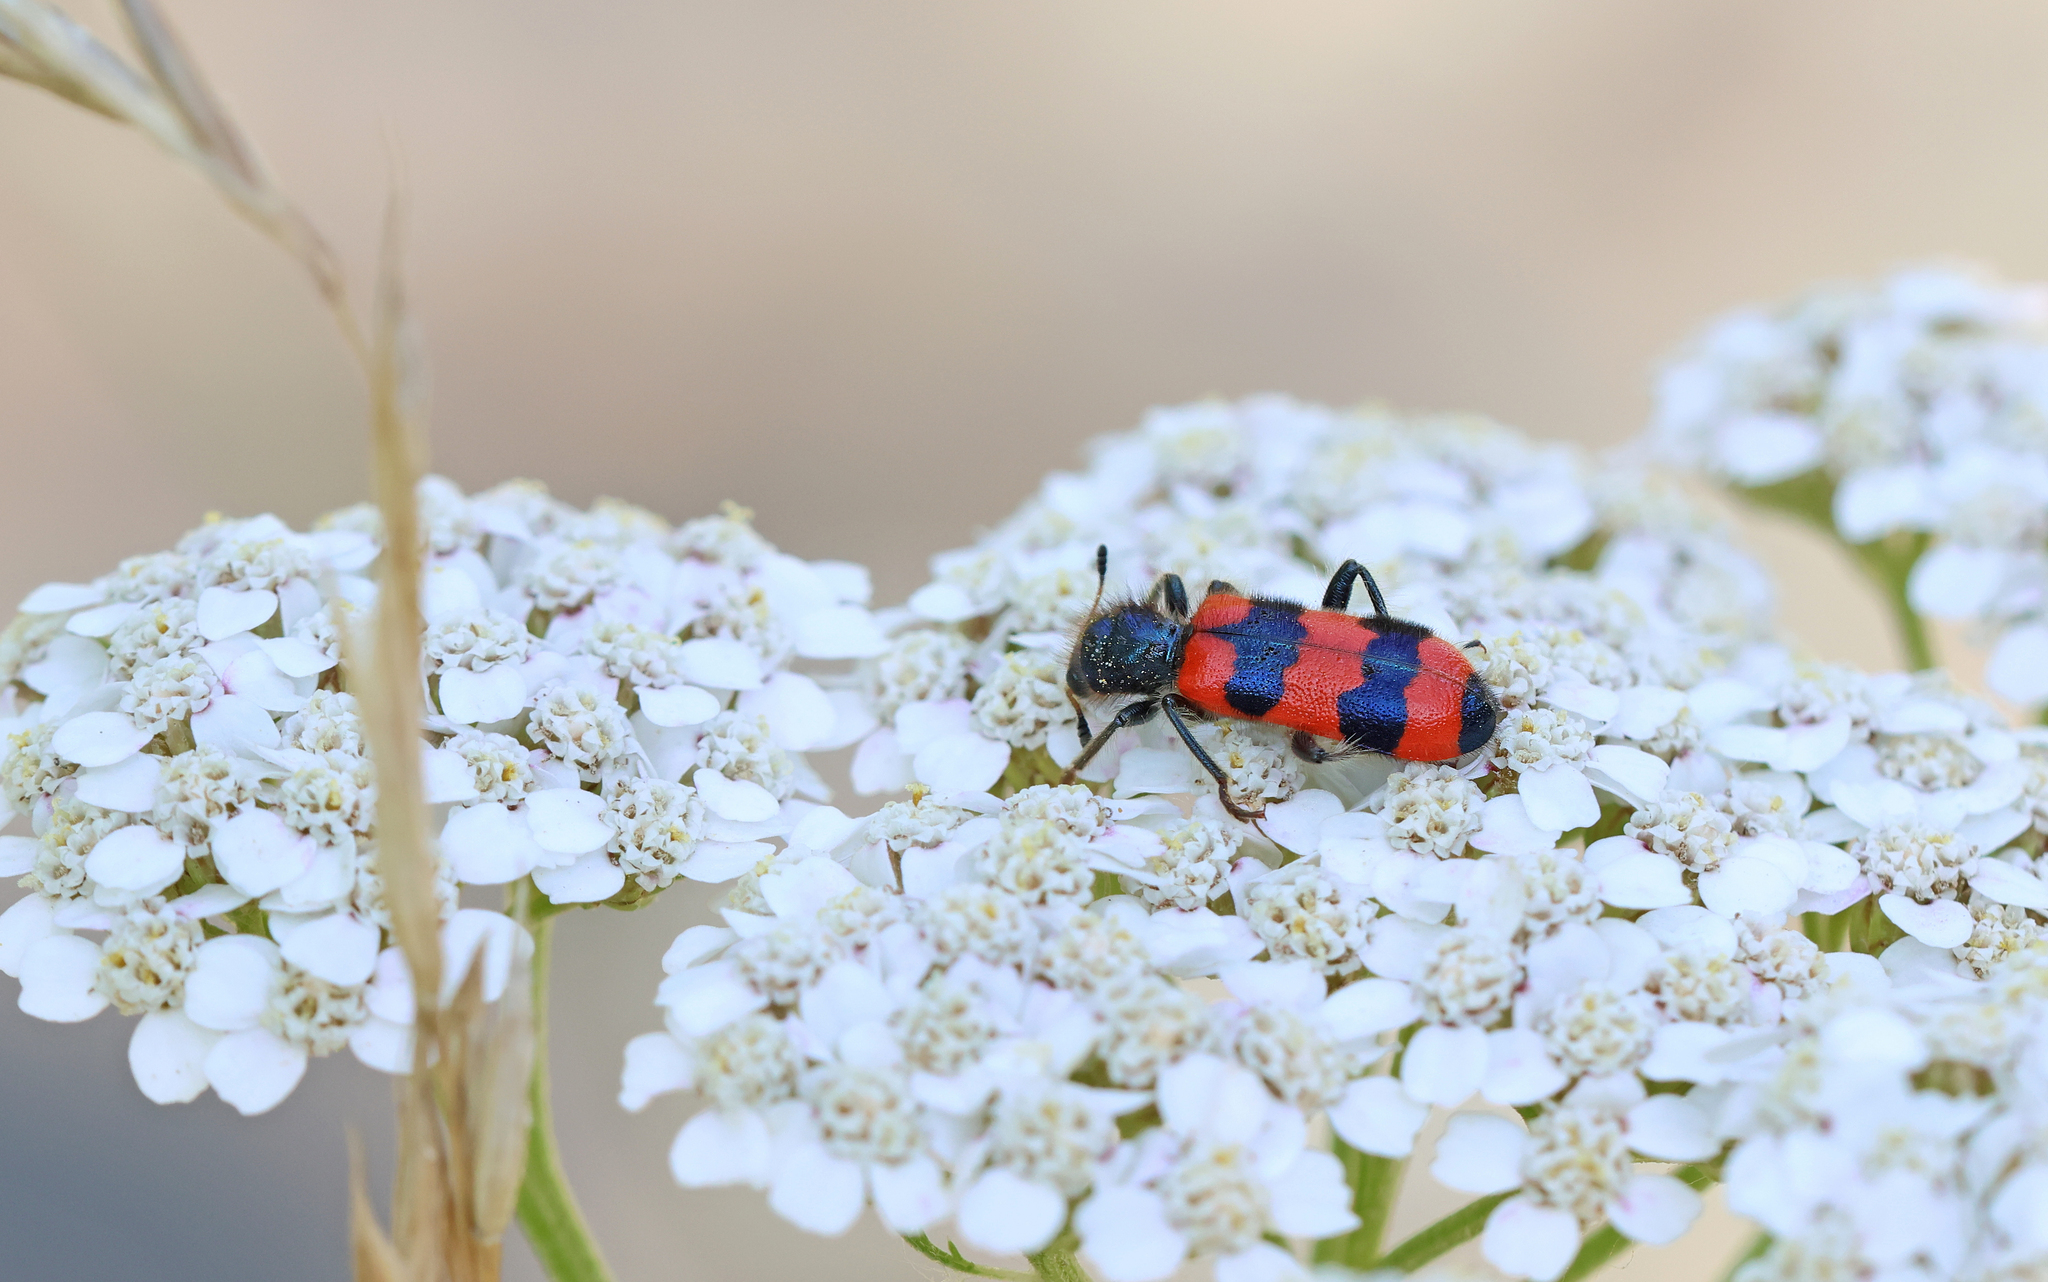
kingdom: Animalia
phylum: Arthropoda
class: Insecta
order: Coleoptera
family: Cleridae
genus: Trichodes
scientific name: Trichodes apiarius
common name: Bee-eating beetle
